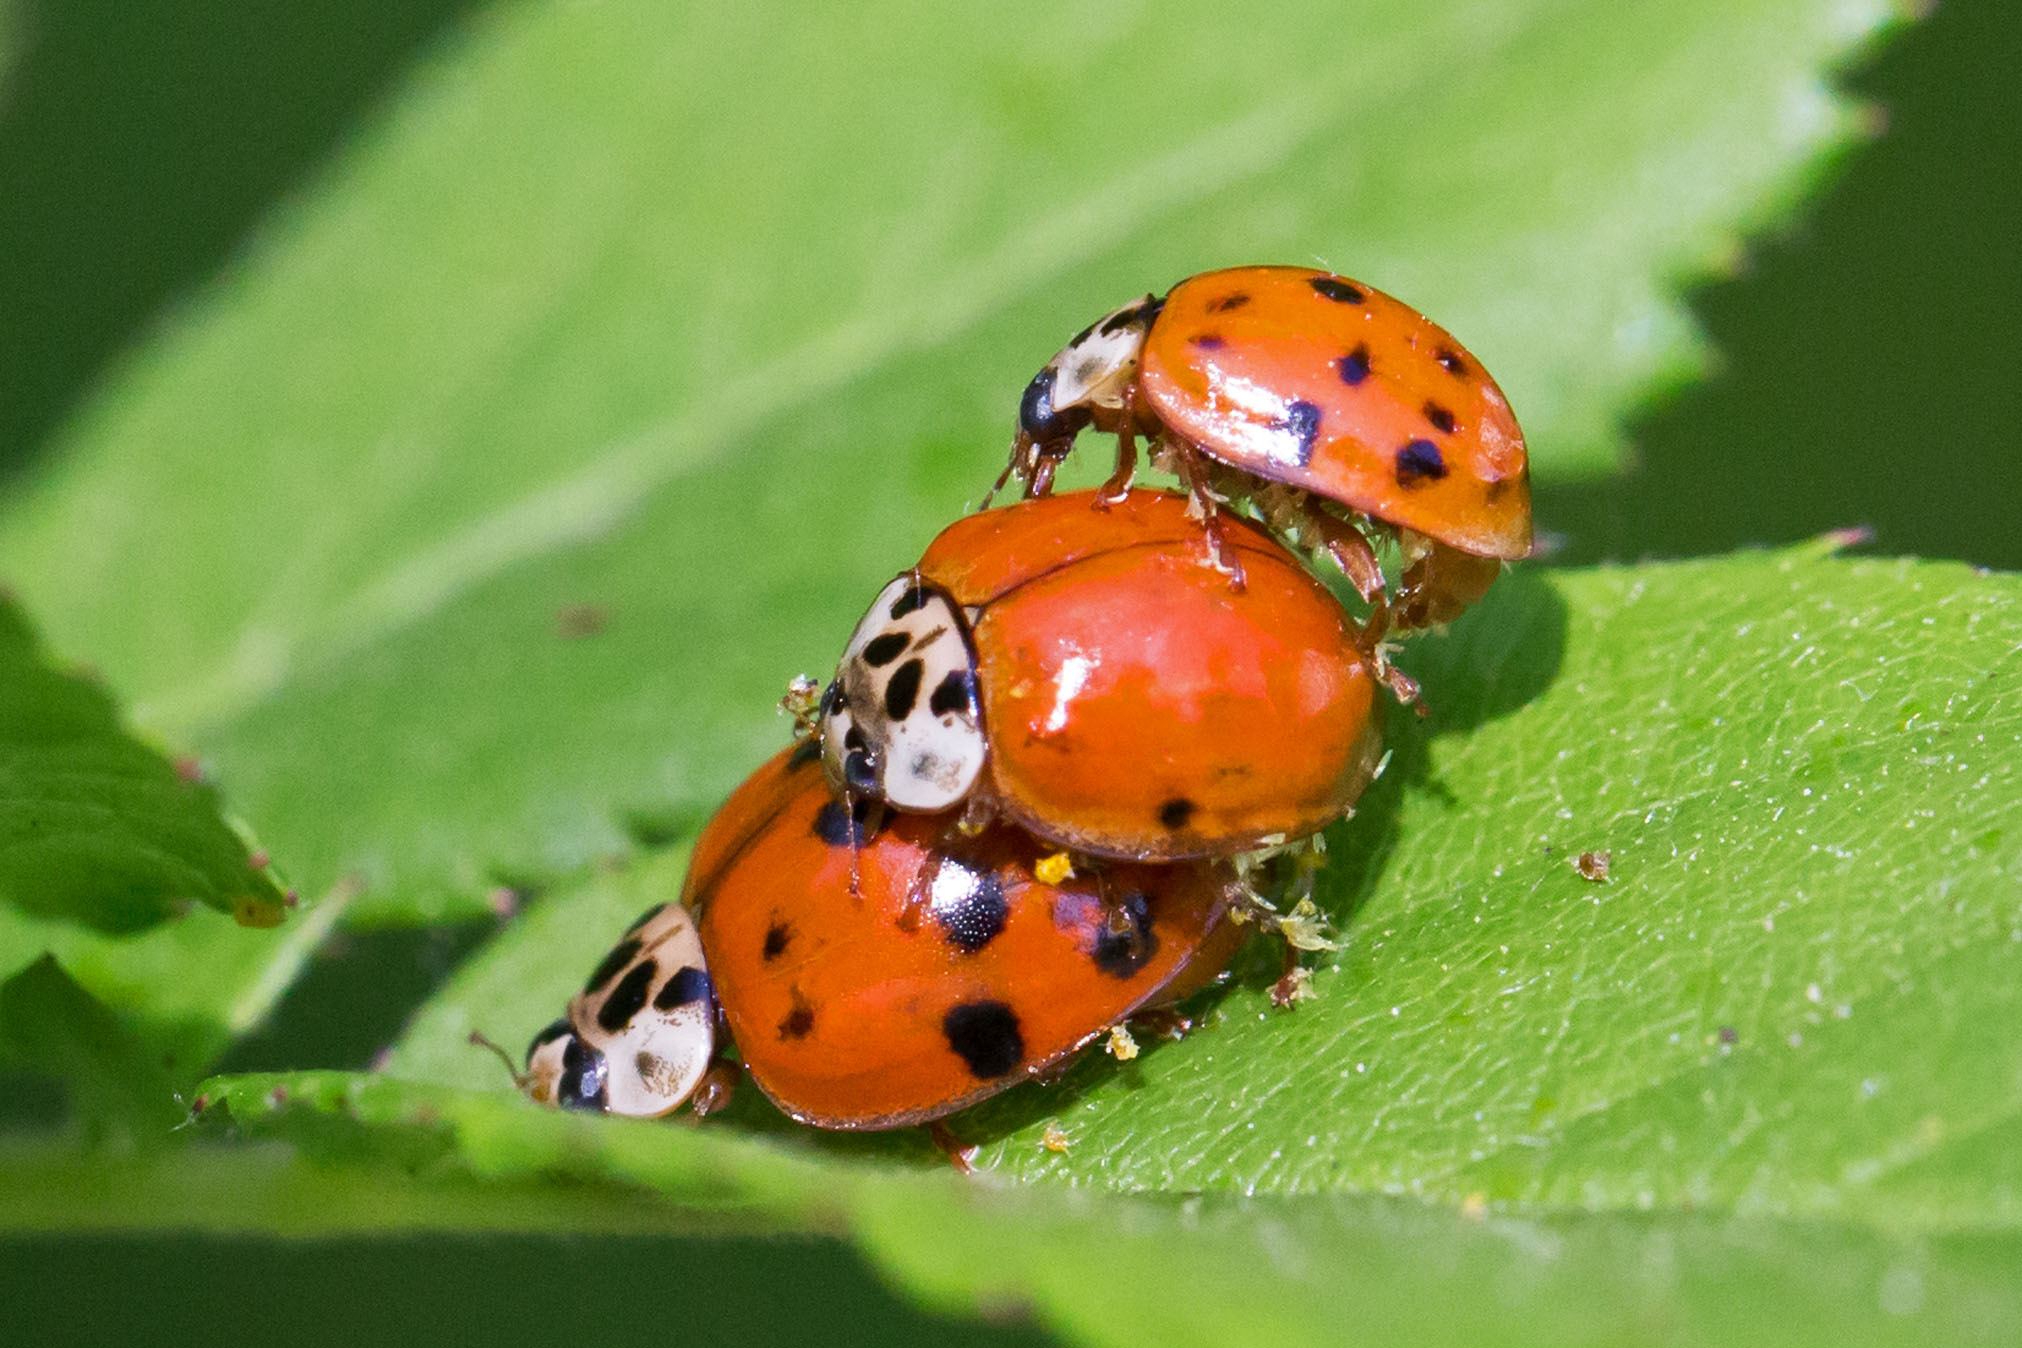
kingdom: Animalia
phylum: Arthropoda
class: Insecta
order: Coleoptera
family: Coccinellidae
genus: Harmonia
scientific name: Harmonia axyridis
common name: Harlequin ladybird
